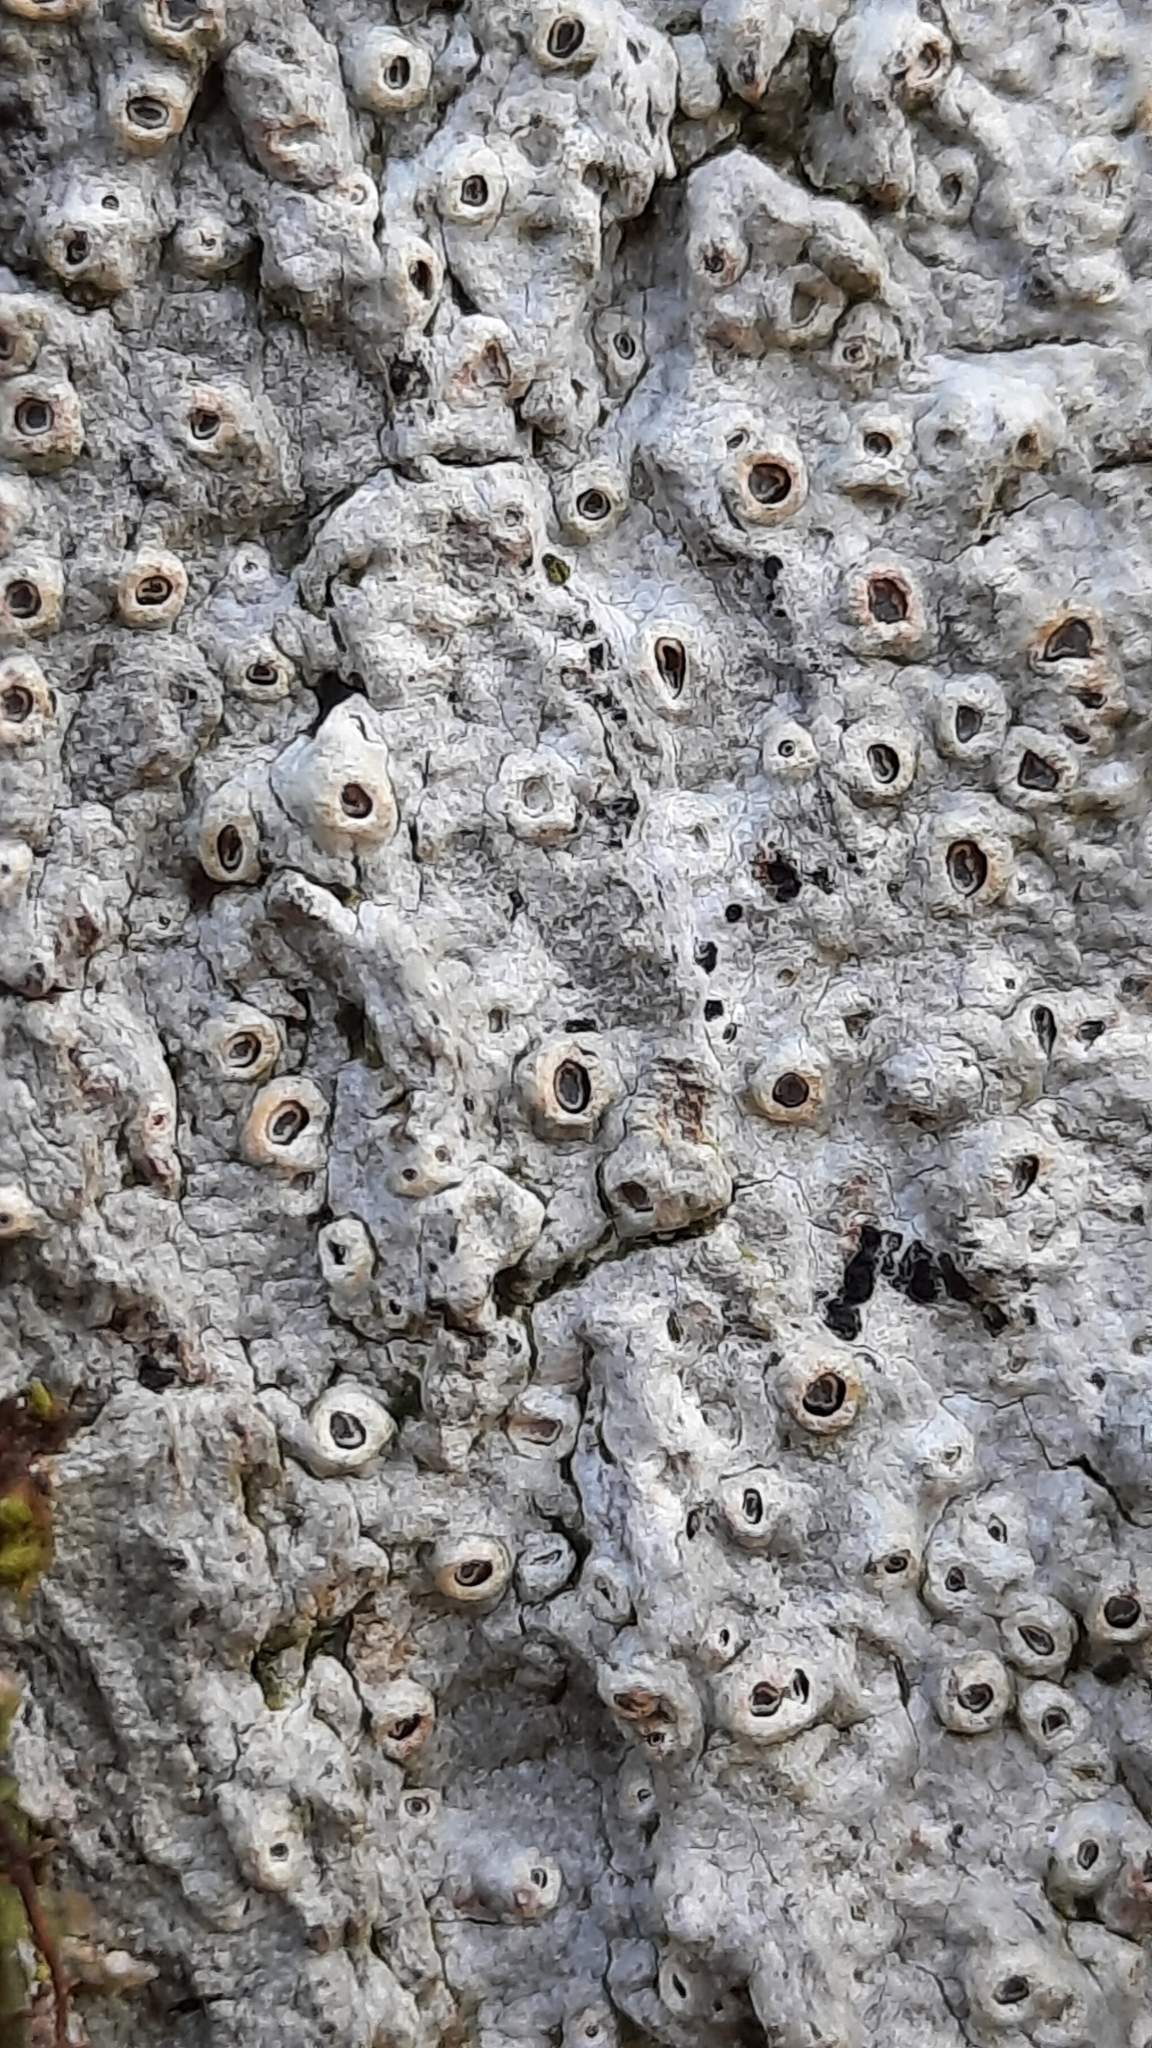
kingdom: Fungi
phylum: Ascomycota
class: Lecanoromycetes
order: Ostropales
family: Graphidaceae
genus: Thelotrema
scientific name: Thelotrema lepadinum
